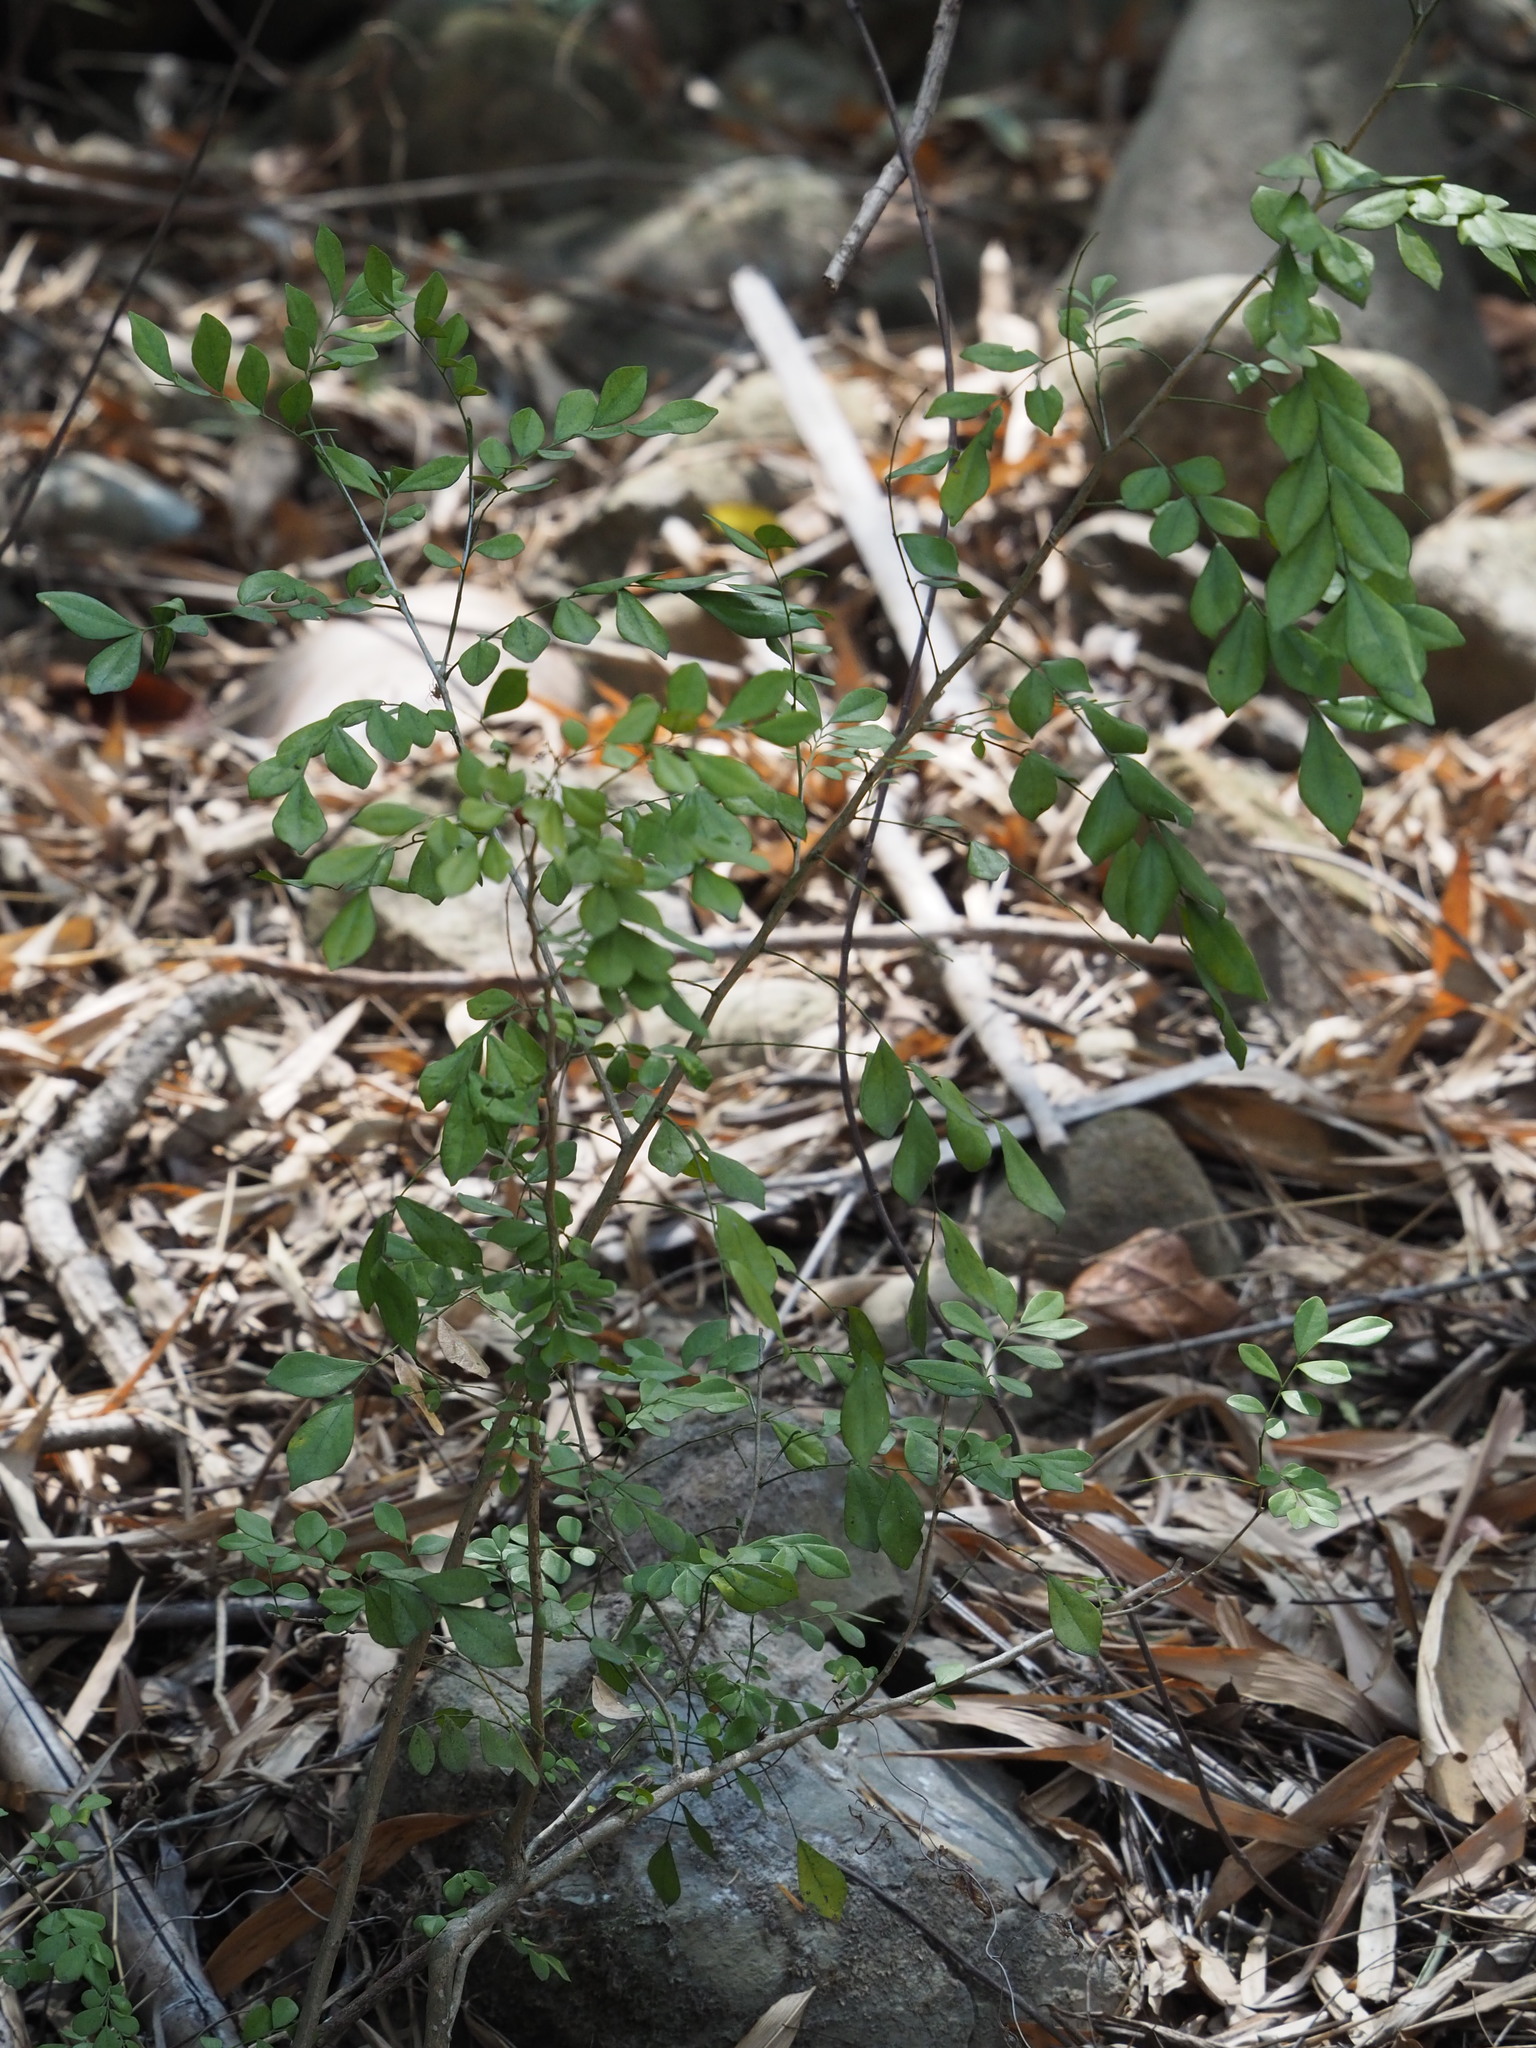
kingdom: Plantae
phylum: Tracheophyta
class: Magnoliopsida
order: Sapindales
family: Rutaceae
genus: Murraya
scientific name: Murraya paniculata
